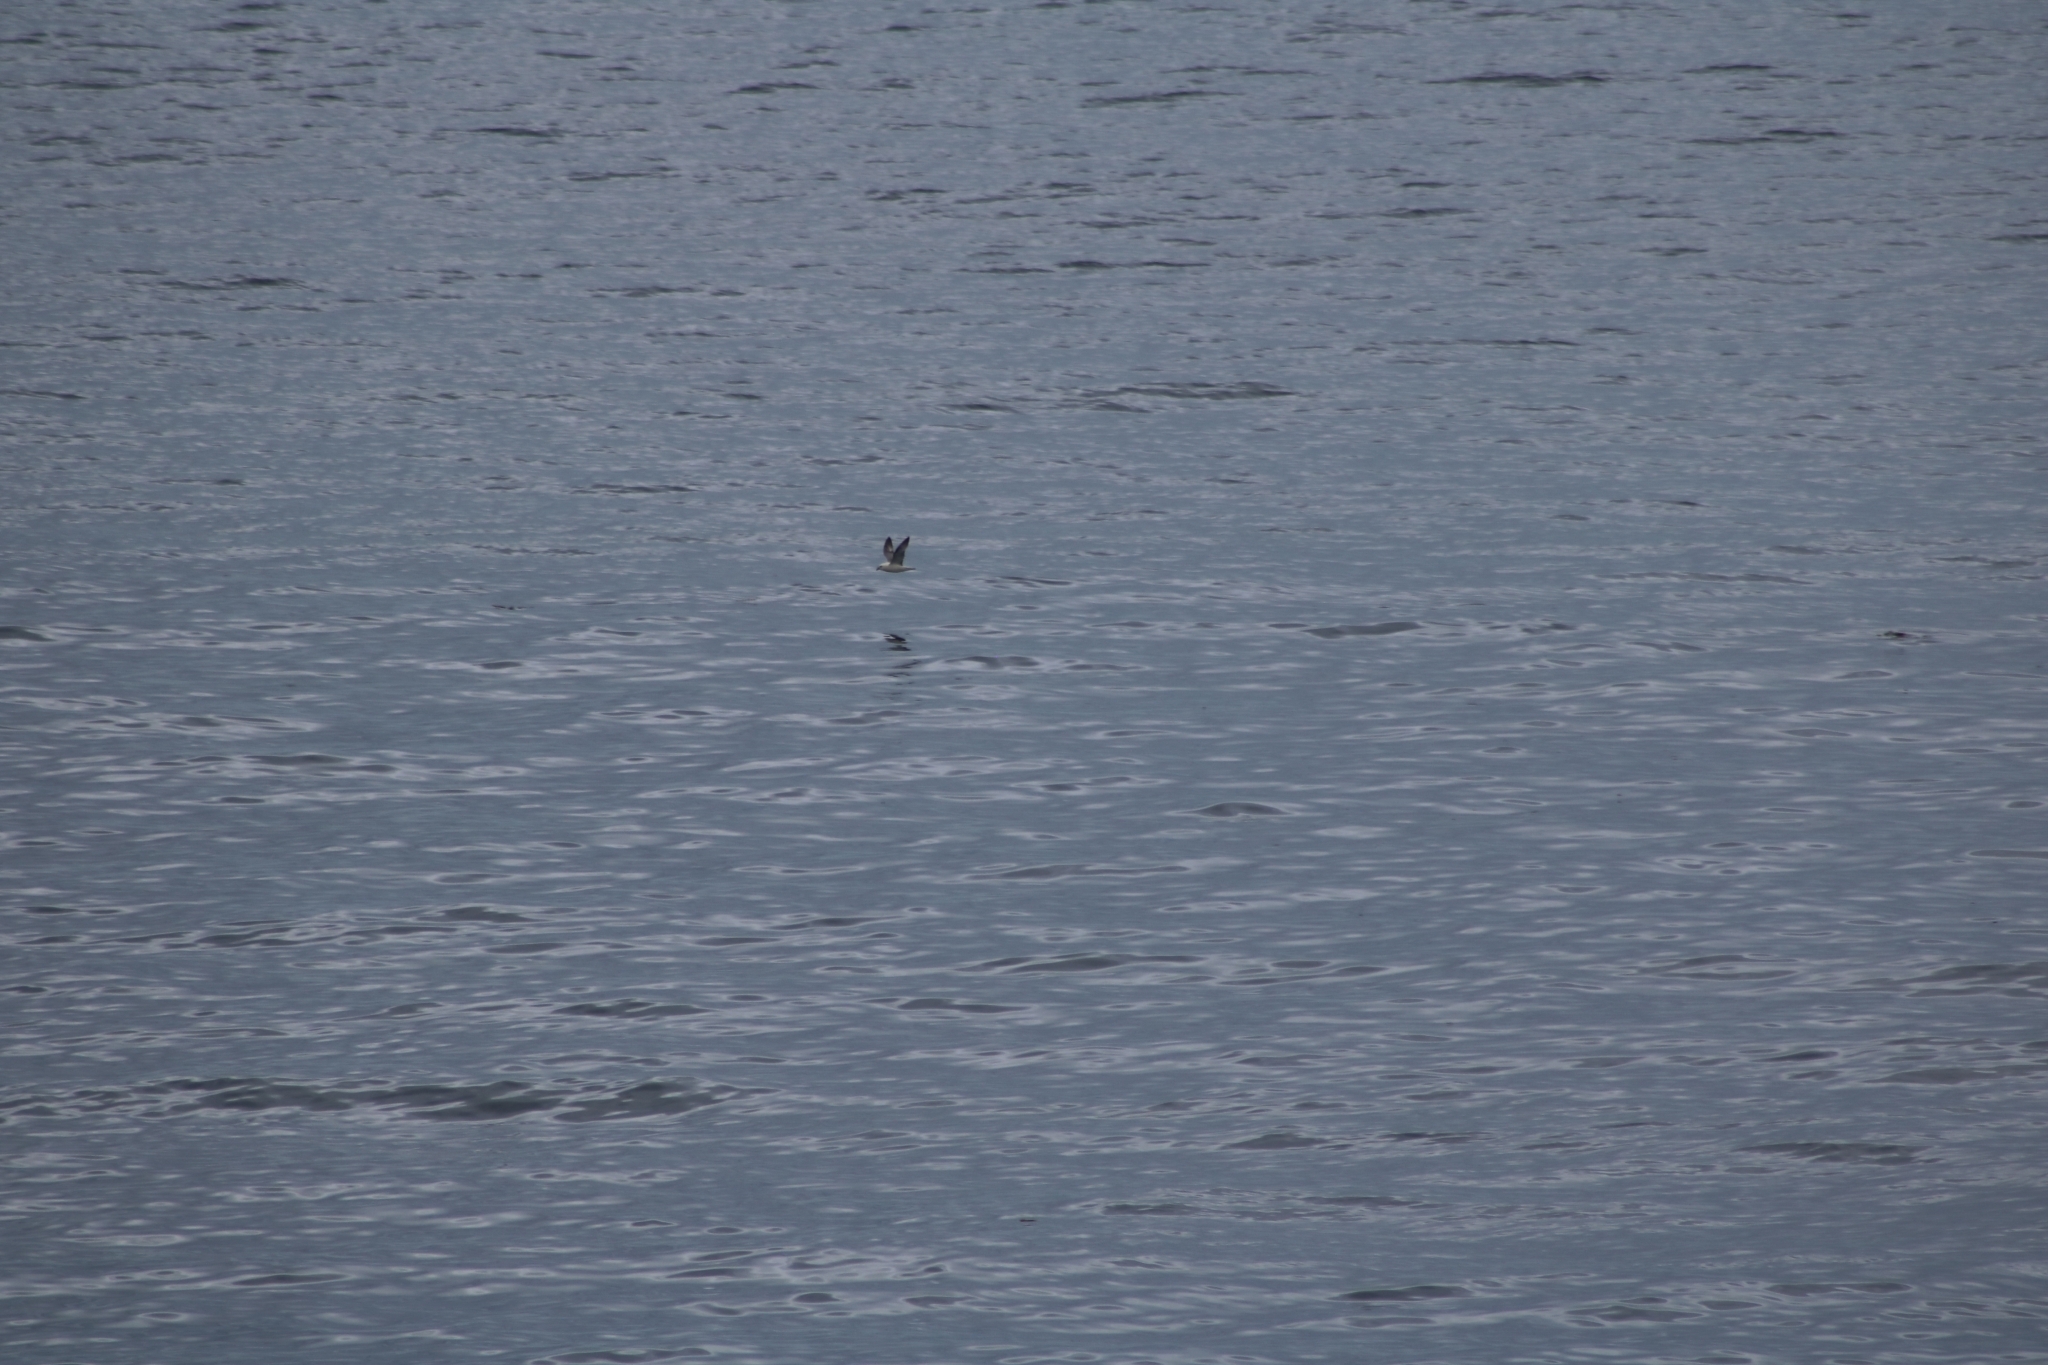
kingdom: Animalia
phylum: Chordata
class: Aves
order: Procellariiformes
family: Procellariidae
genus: Fulmarus
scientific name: Fulmarus glacialis
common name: Northern fulmar
